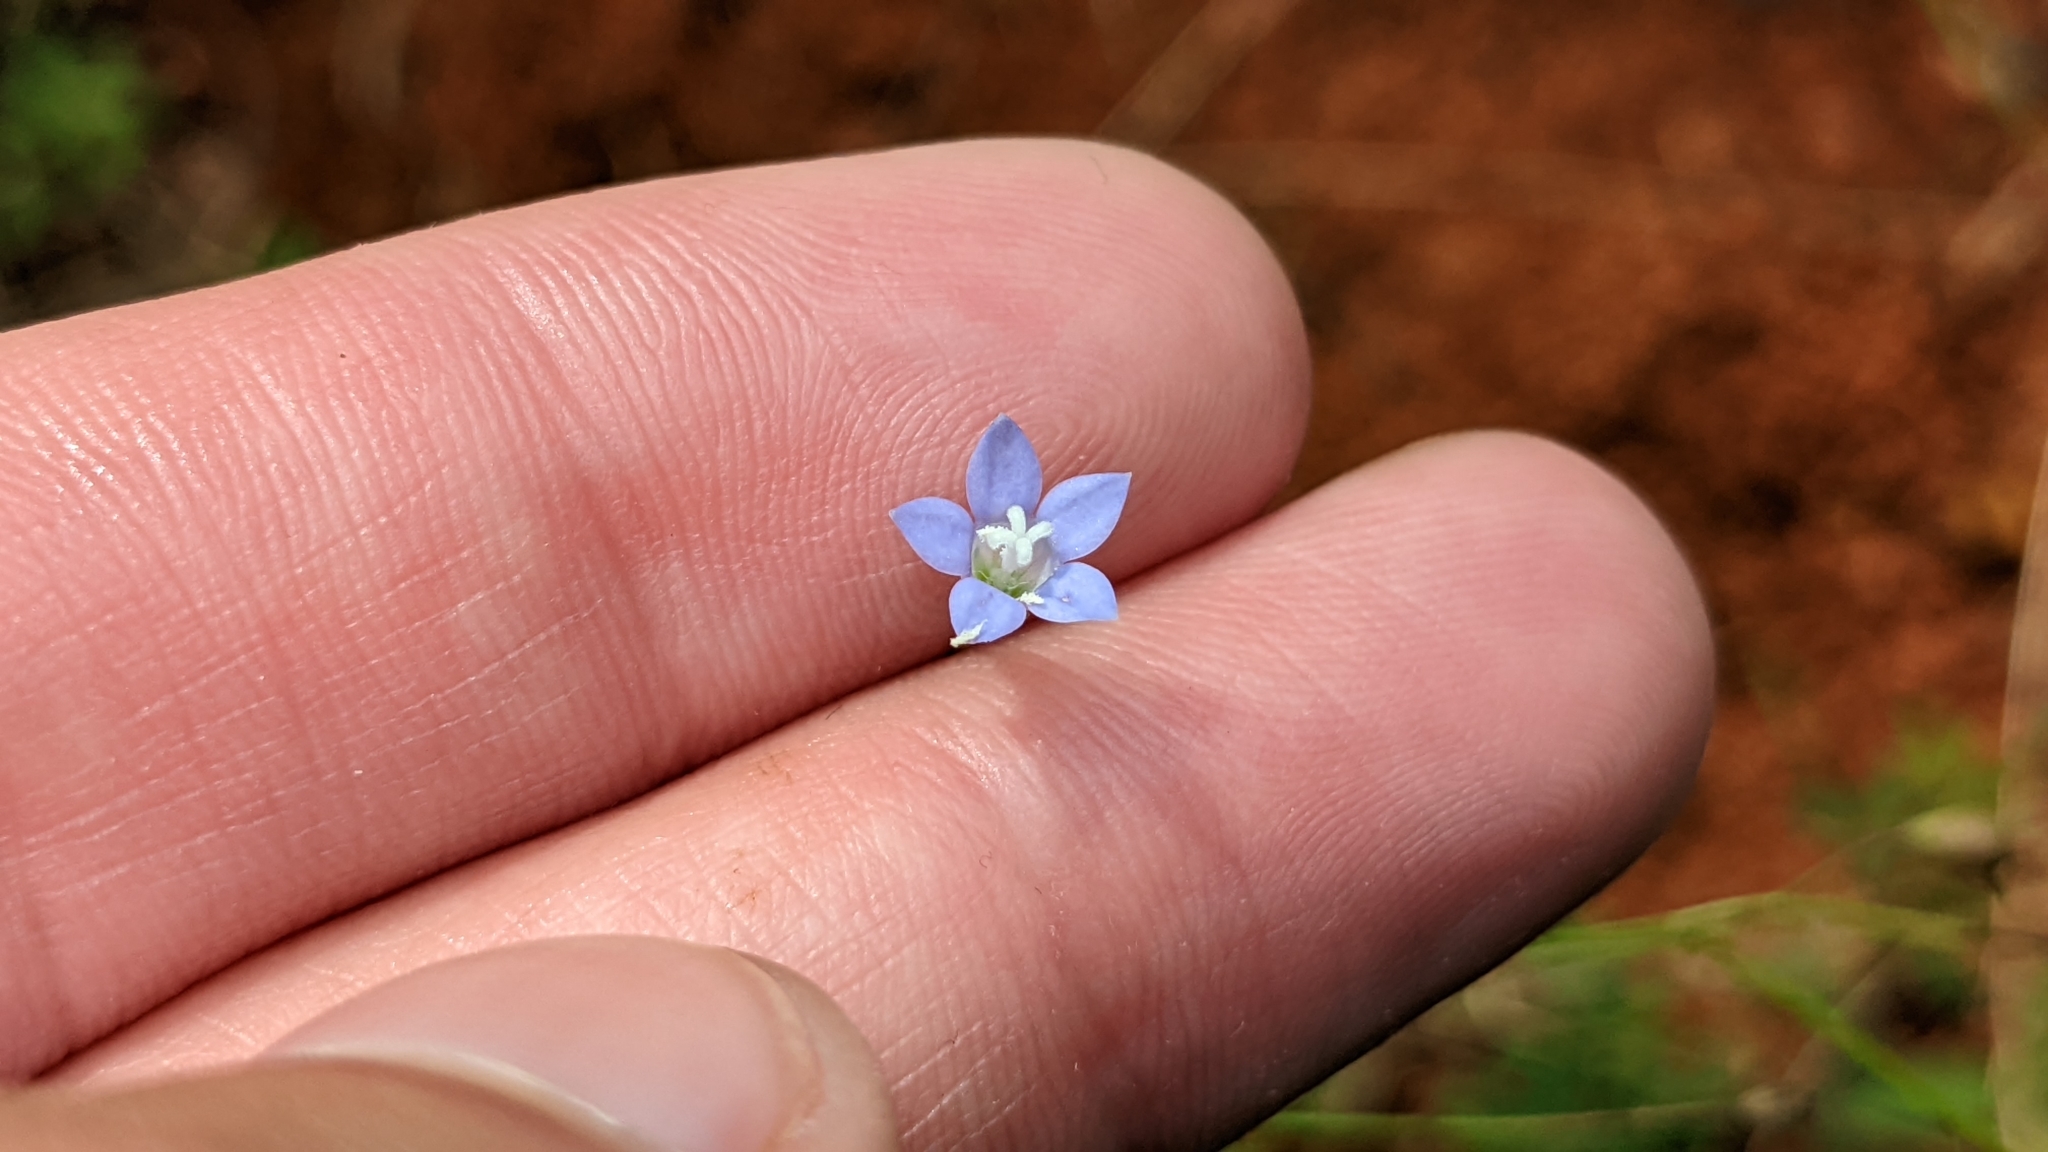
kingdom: Plantae
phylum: Tracheophyta
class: Magnoliopsida
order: Asterales
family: Campanulaceae
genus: Wahlenbergia
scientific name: Wahlenbergia marginata
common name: Southern rockbell
